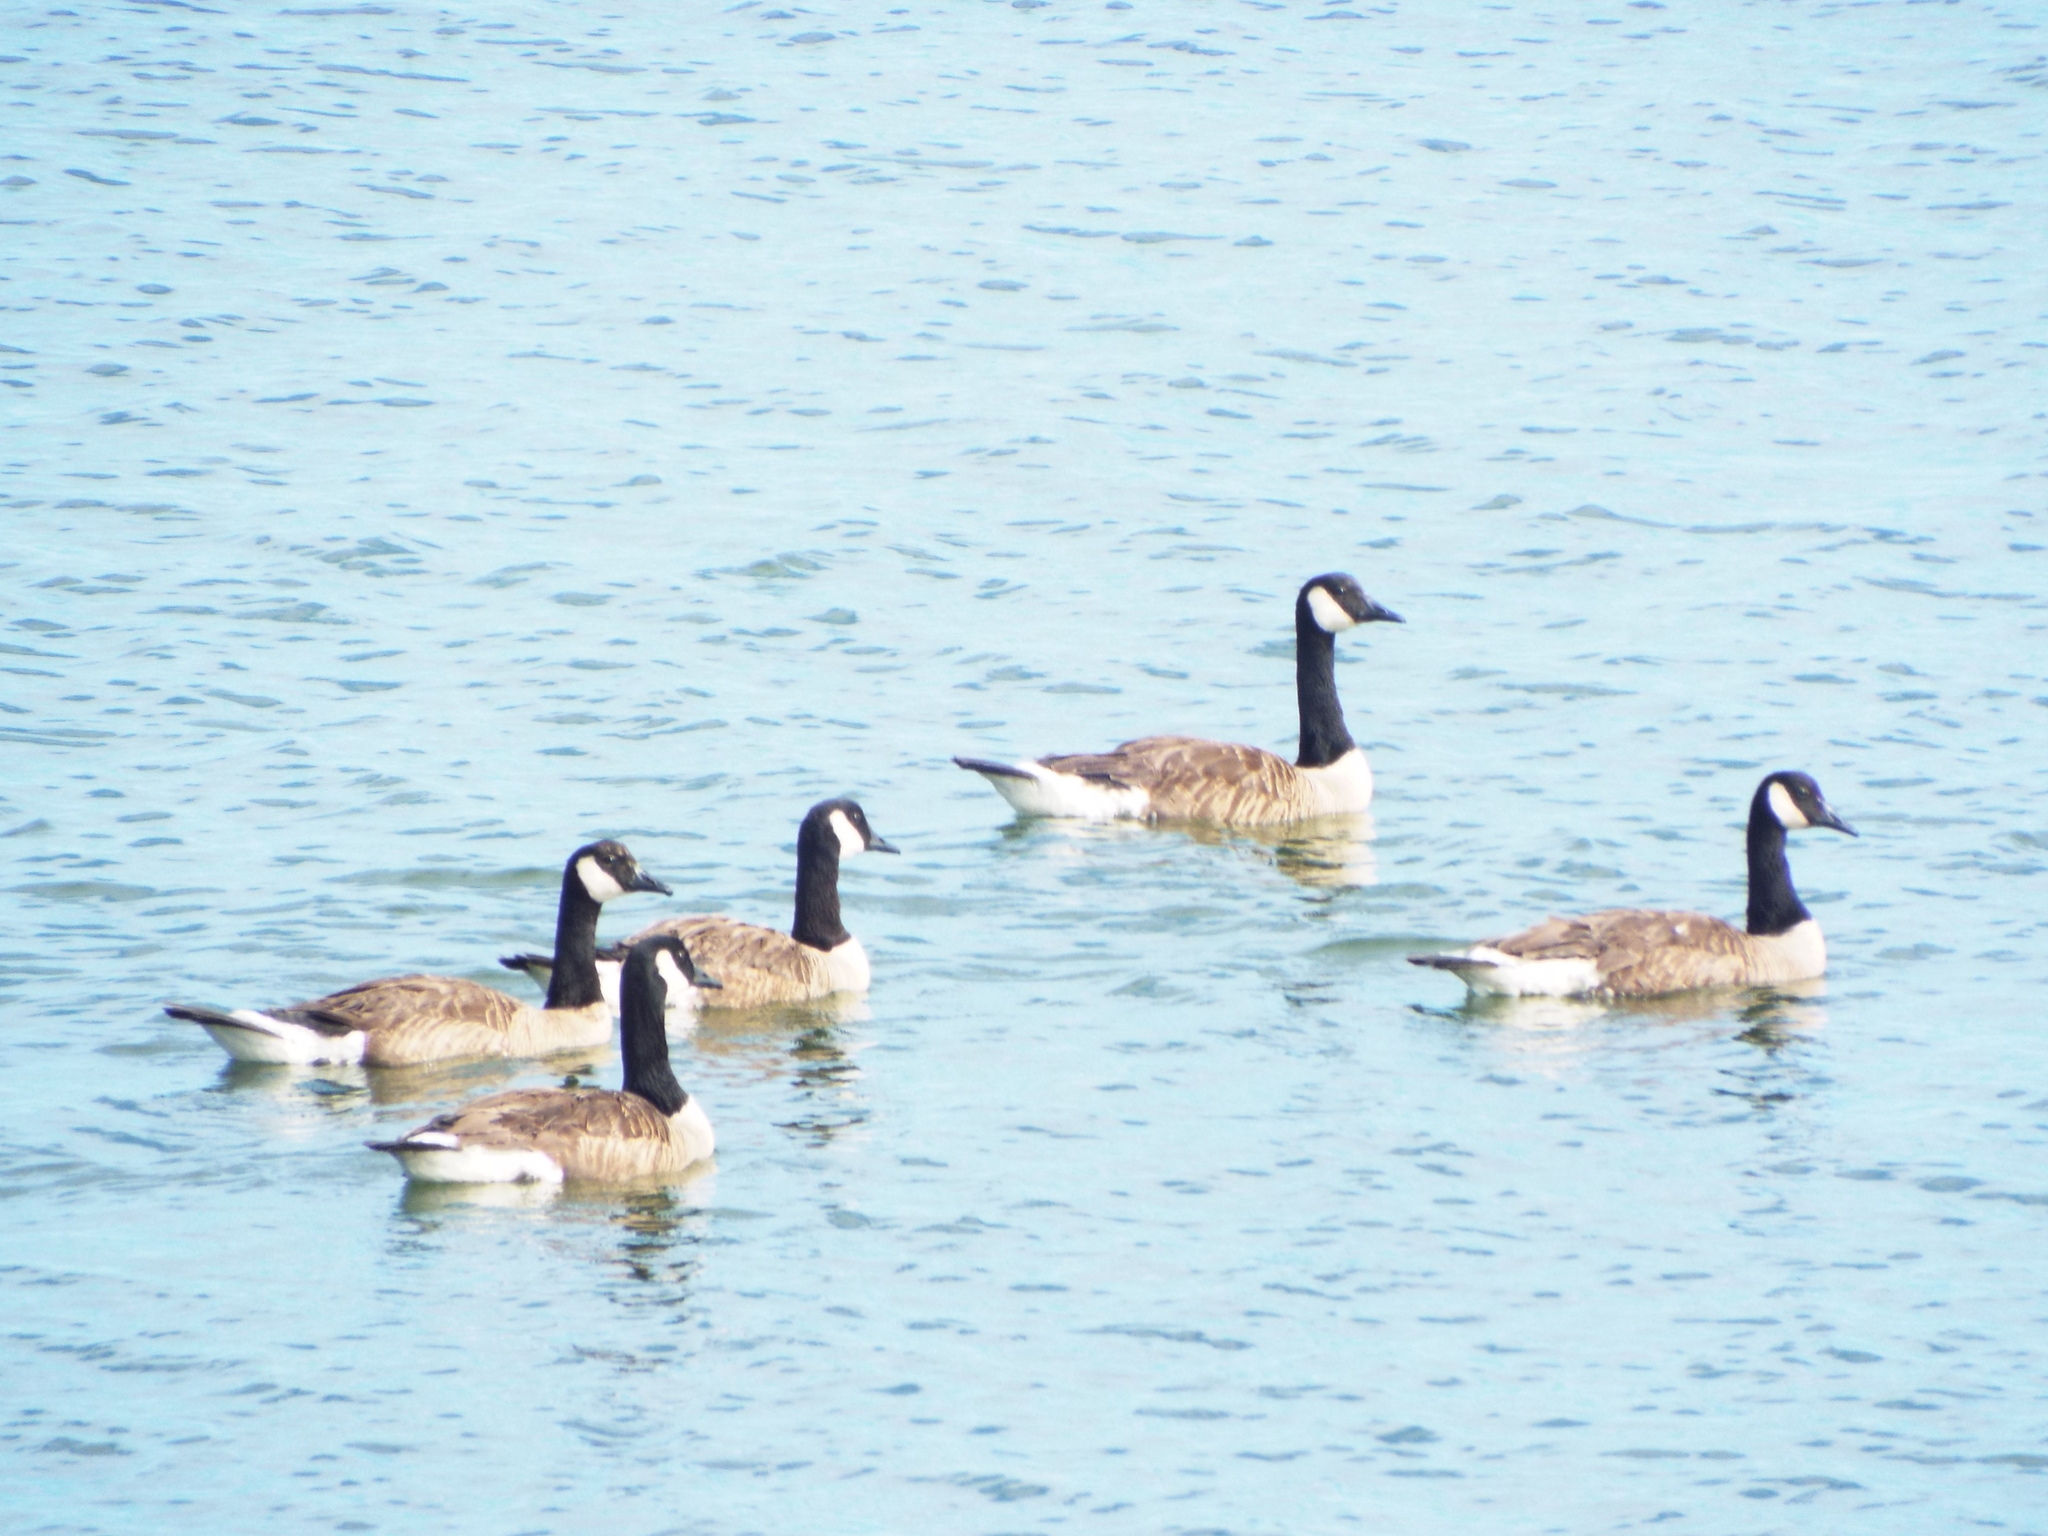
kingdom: Animalia
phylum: Chordata
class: Aves
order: Anseriformes
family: Anatidae
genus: Branta
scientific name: Branta canadensis
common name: Canada goose
